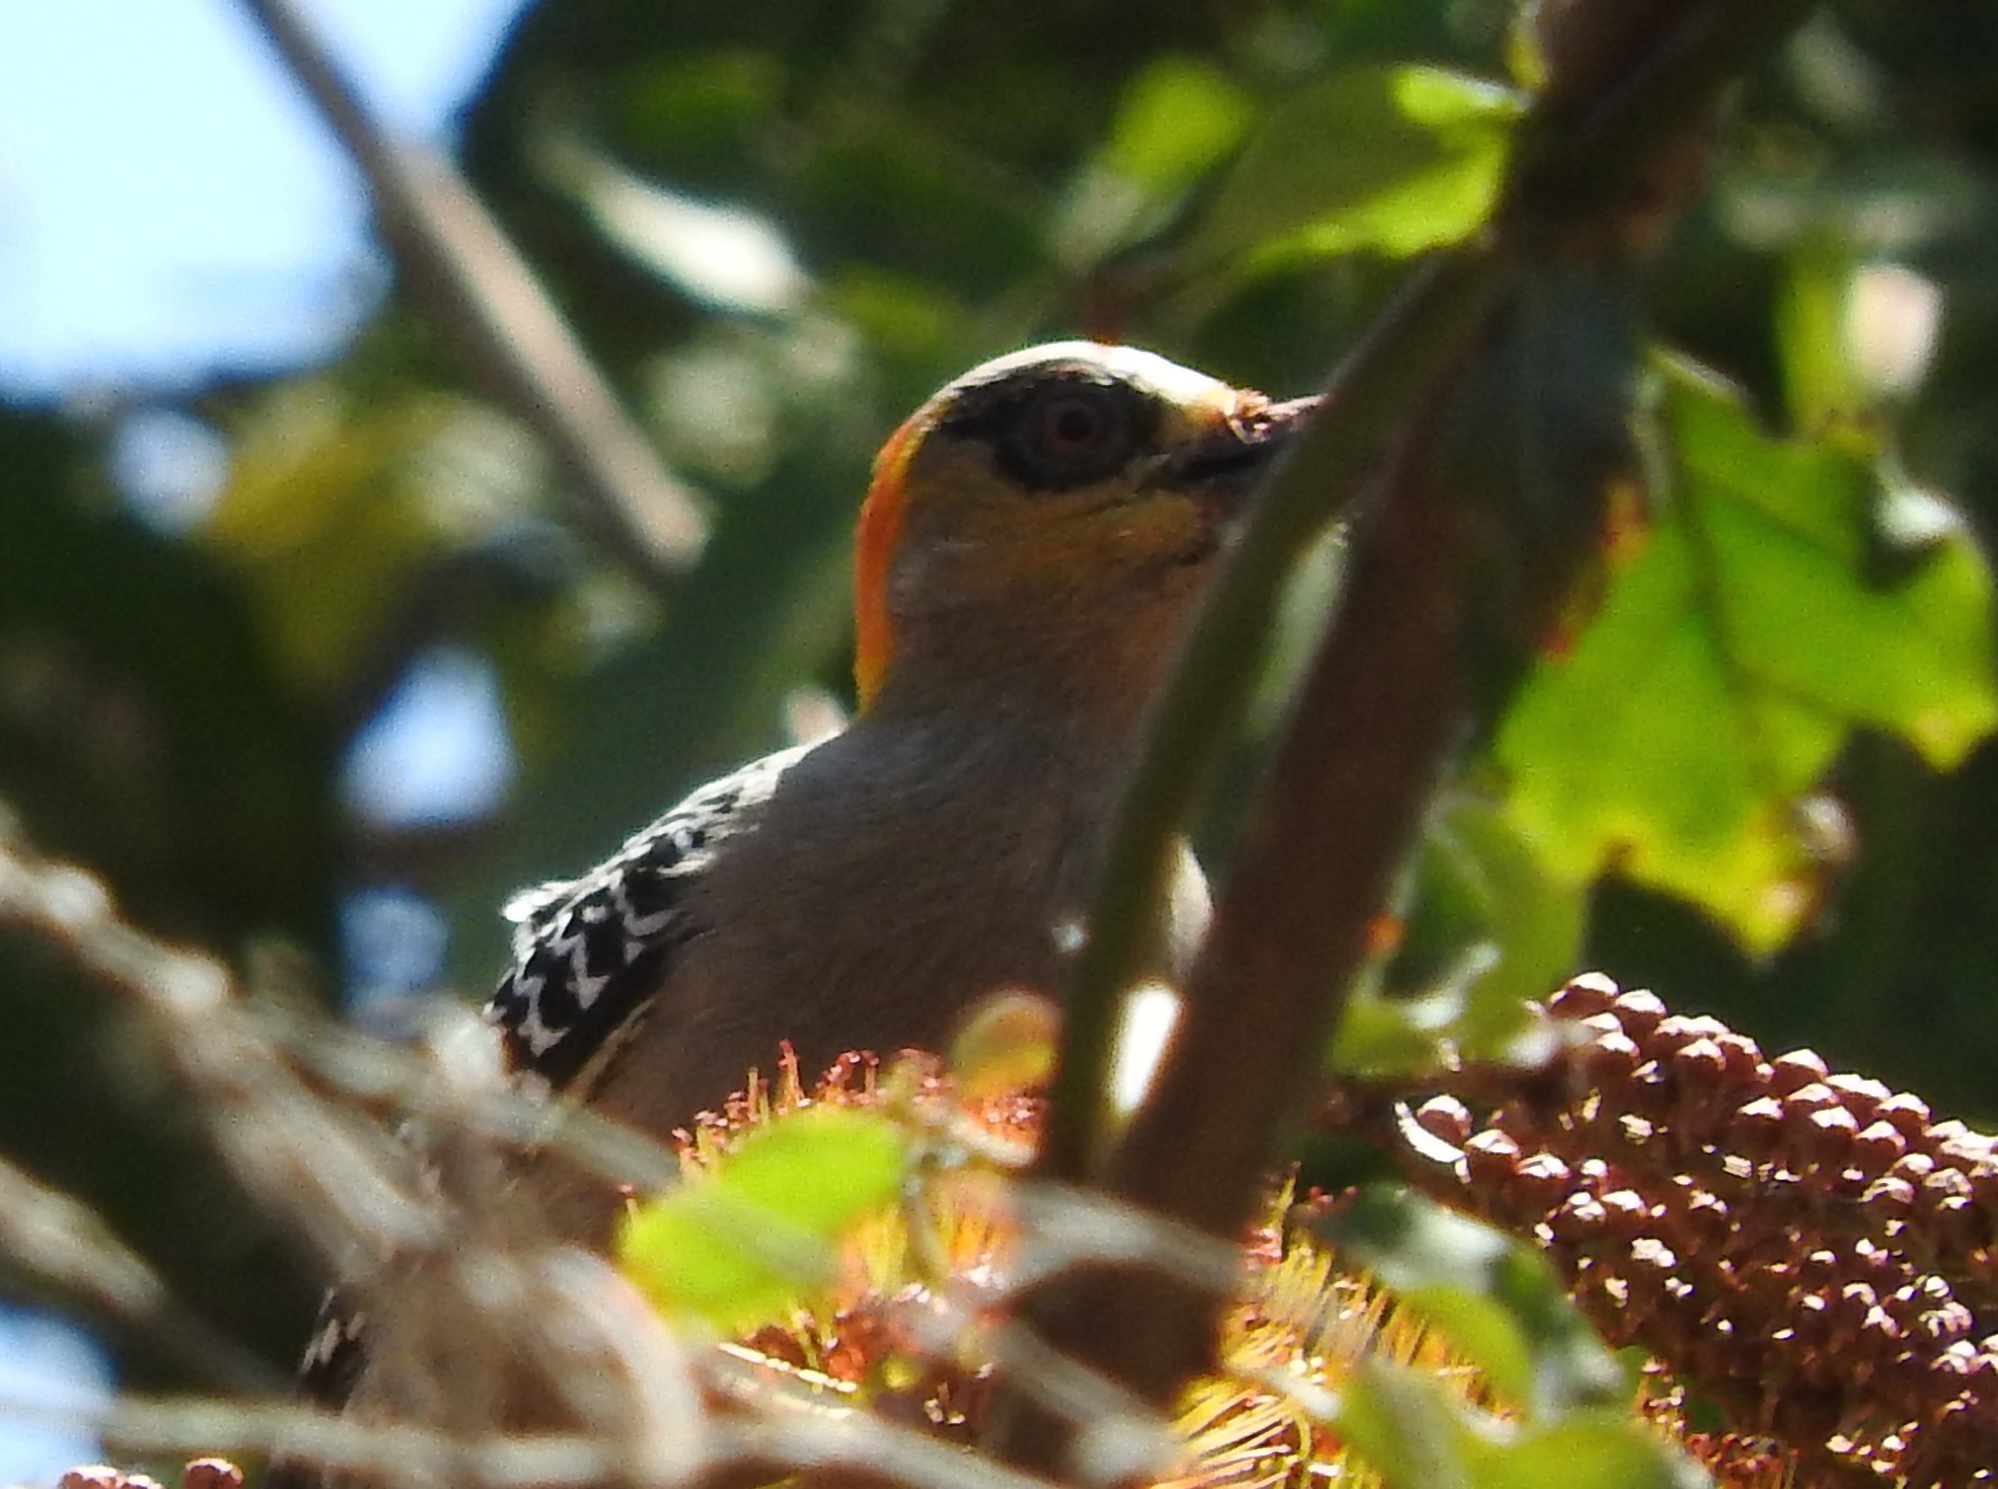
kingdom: Animalia
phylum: Chordata
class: Aves
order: Piciformes
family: Picidae
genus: Melanerpes
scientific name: Melanerpes chrysogenys
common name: Golden-cheeked woodpecker
